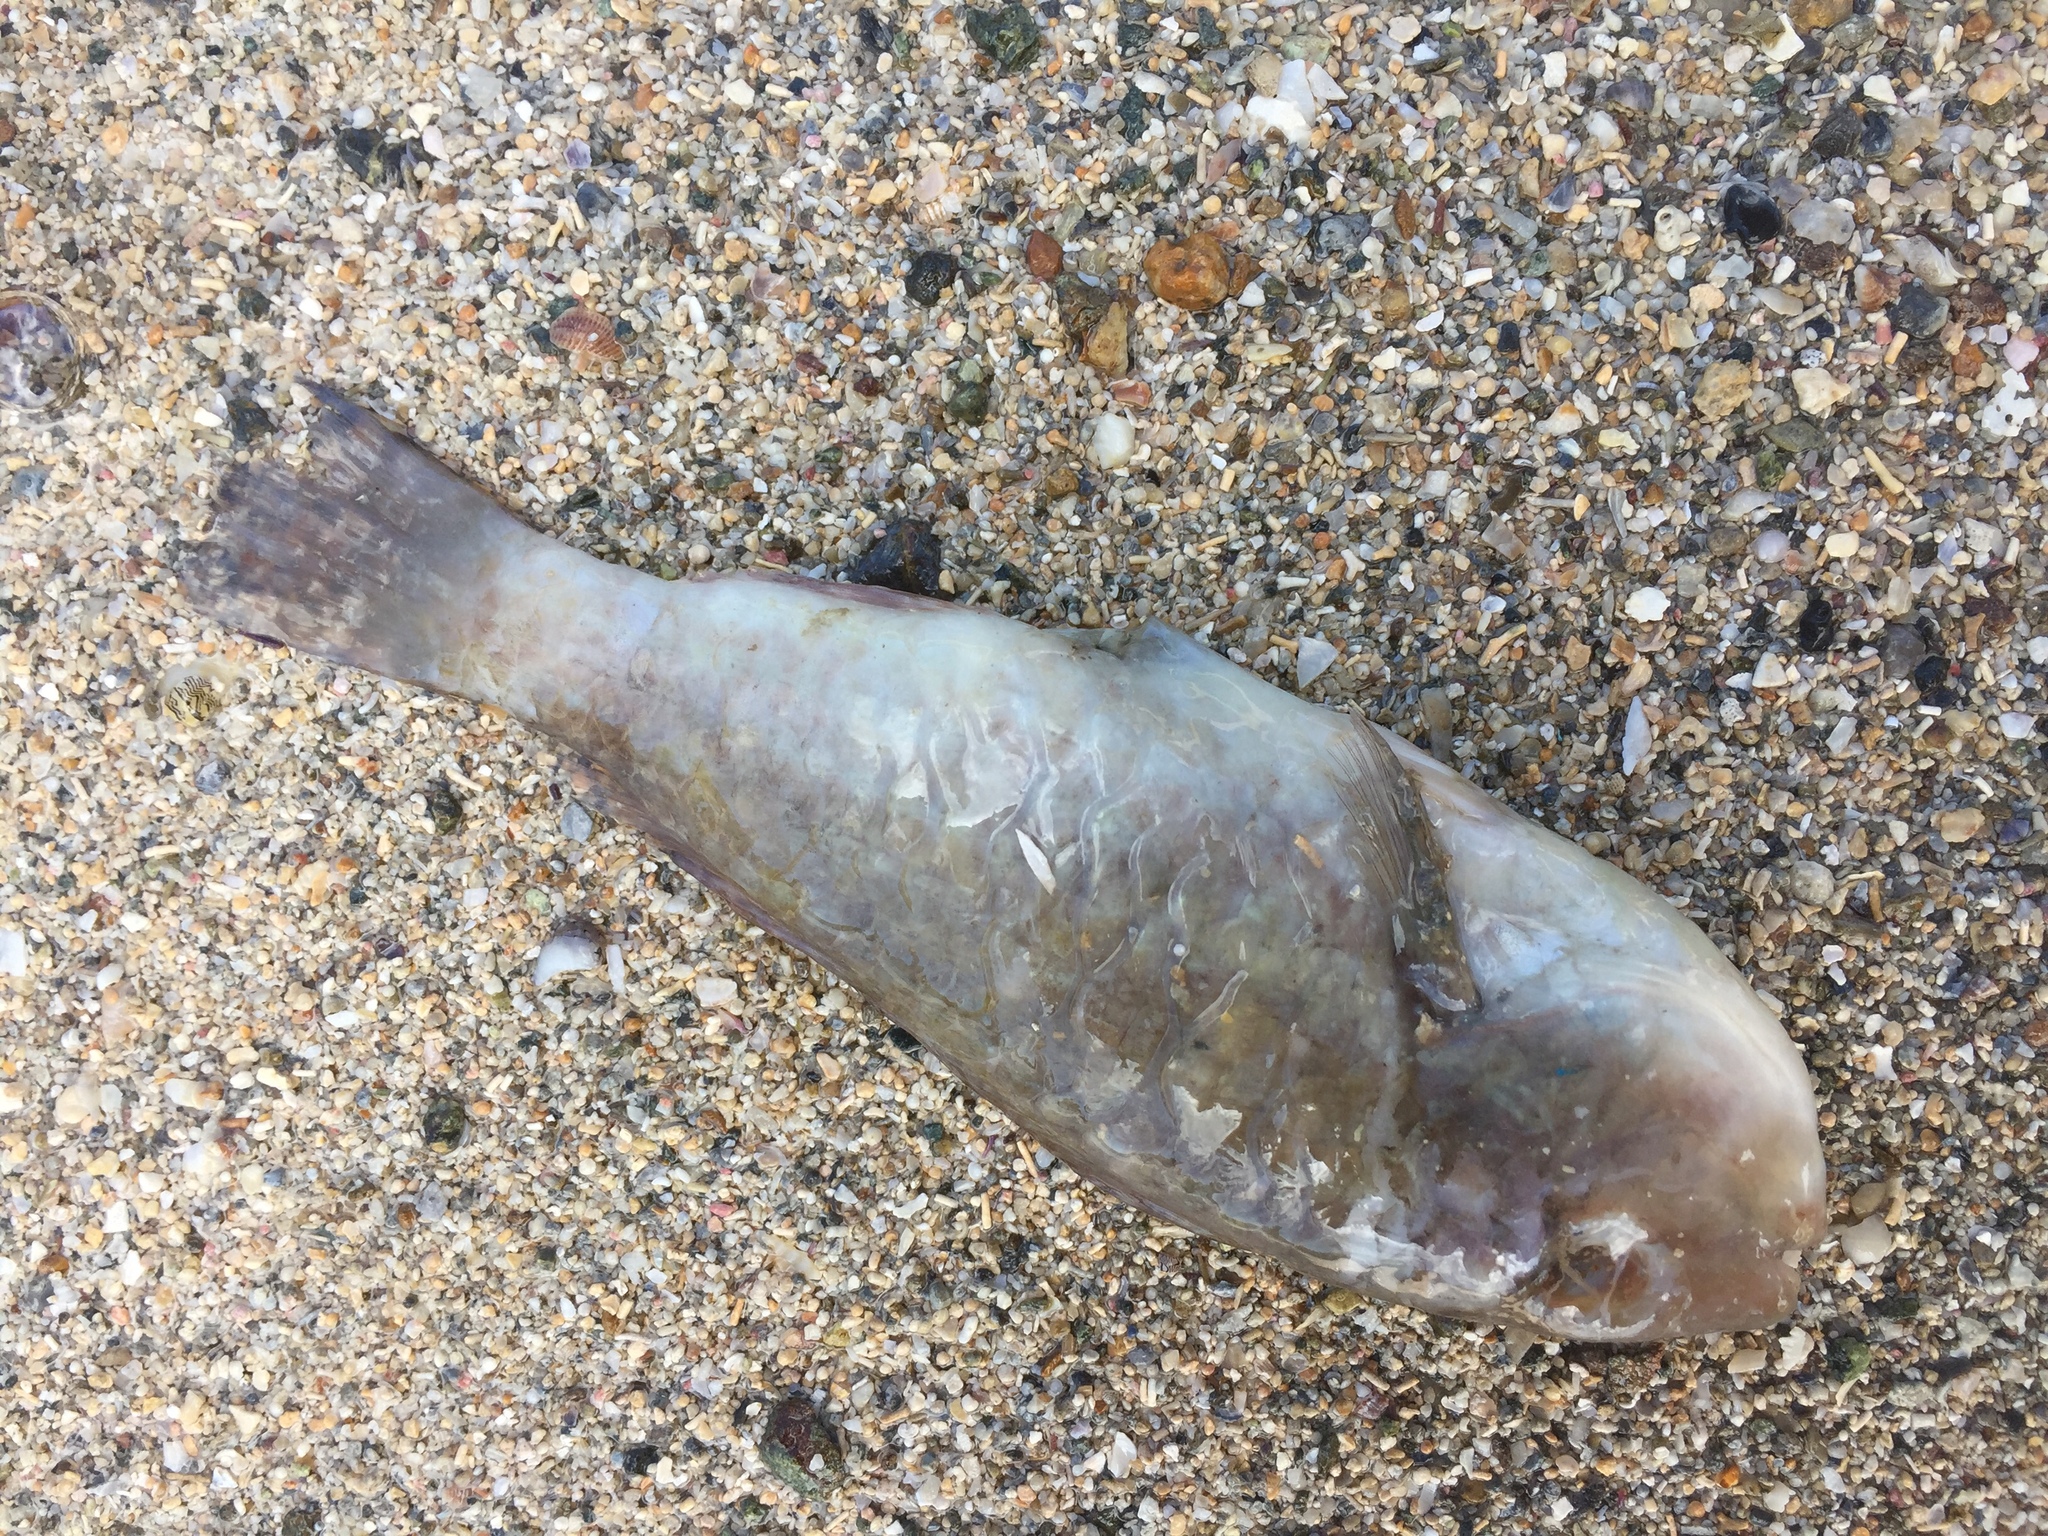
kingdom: Animalia
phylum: Chordata
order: Perciformes
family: Labridae
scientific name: Labridae
